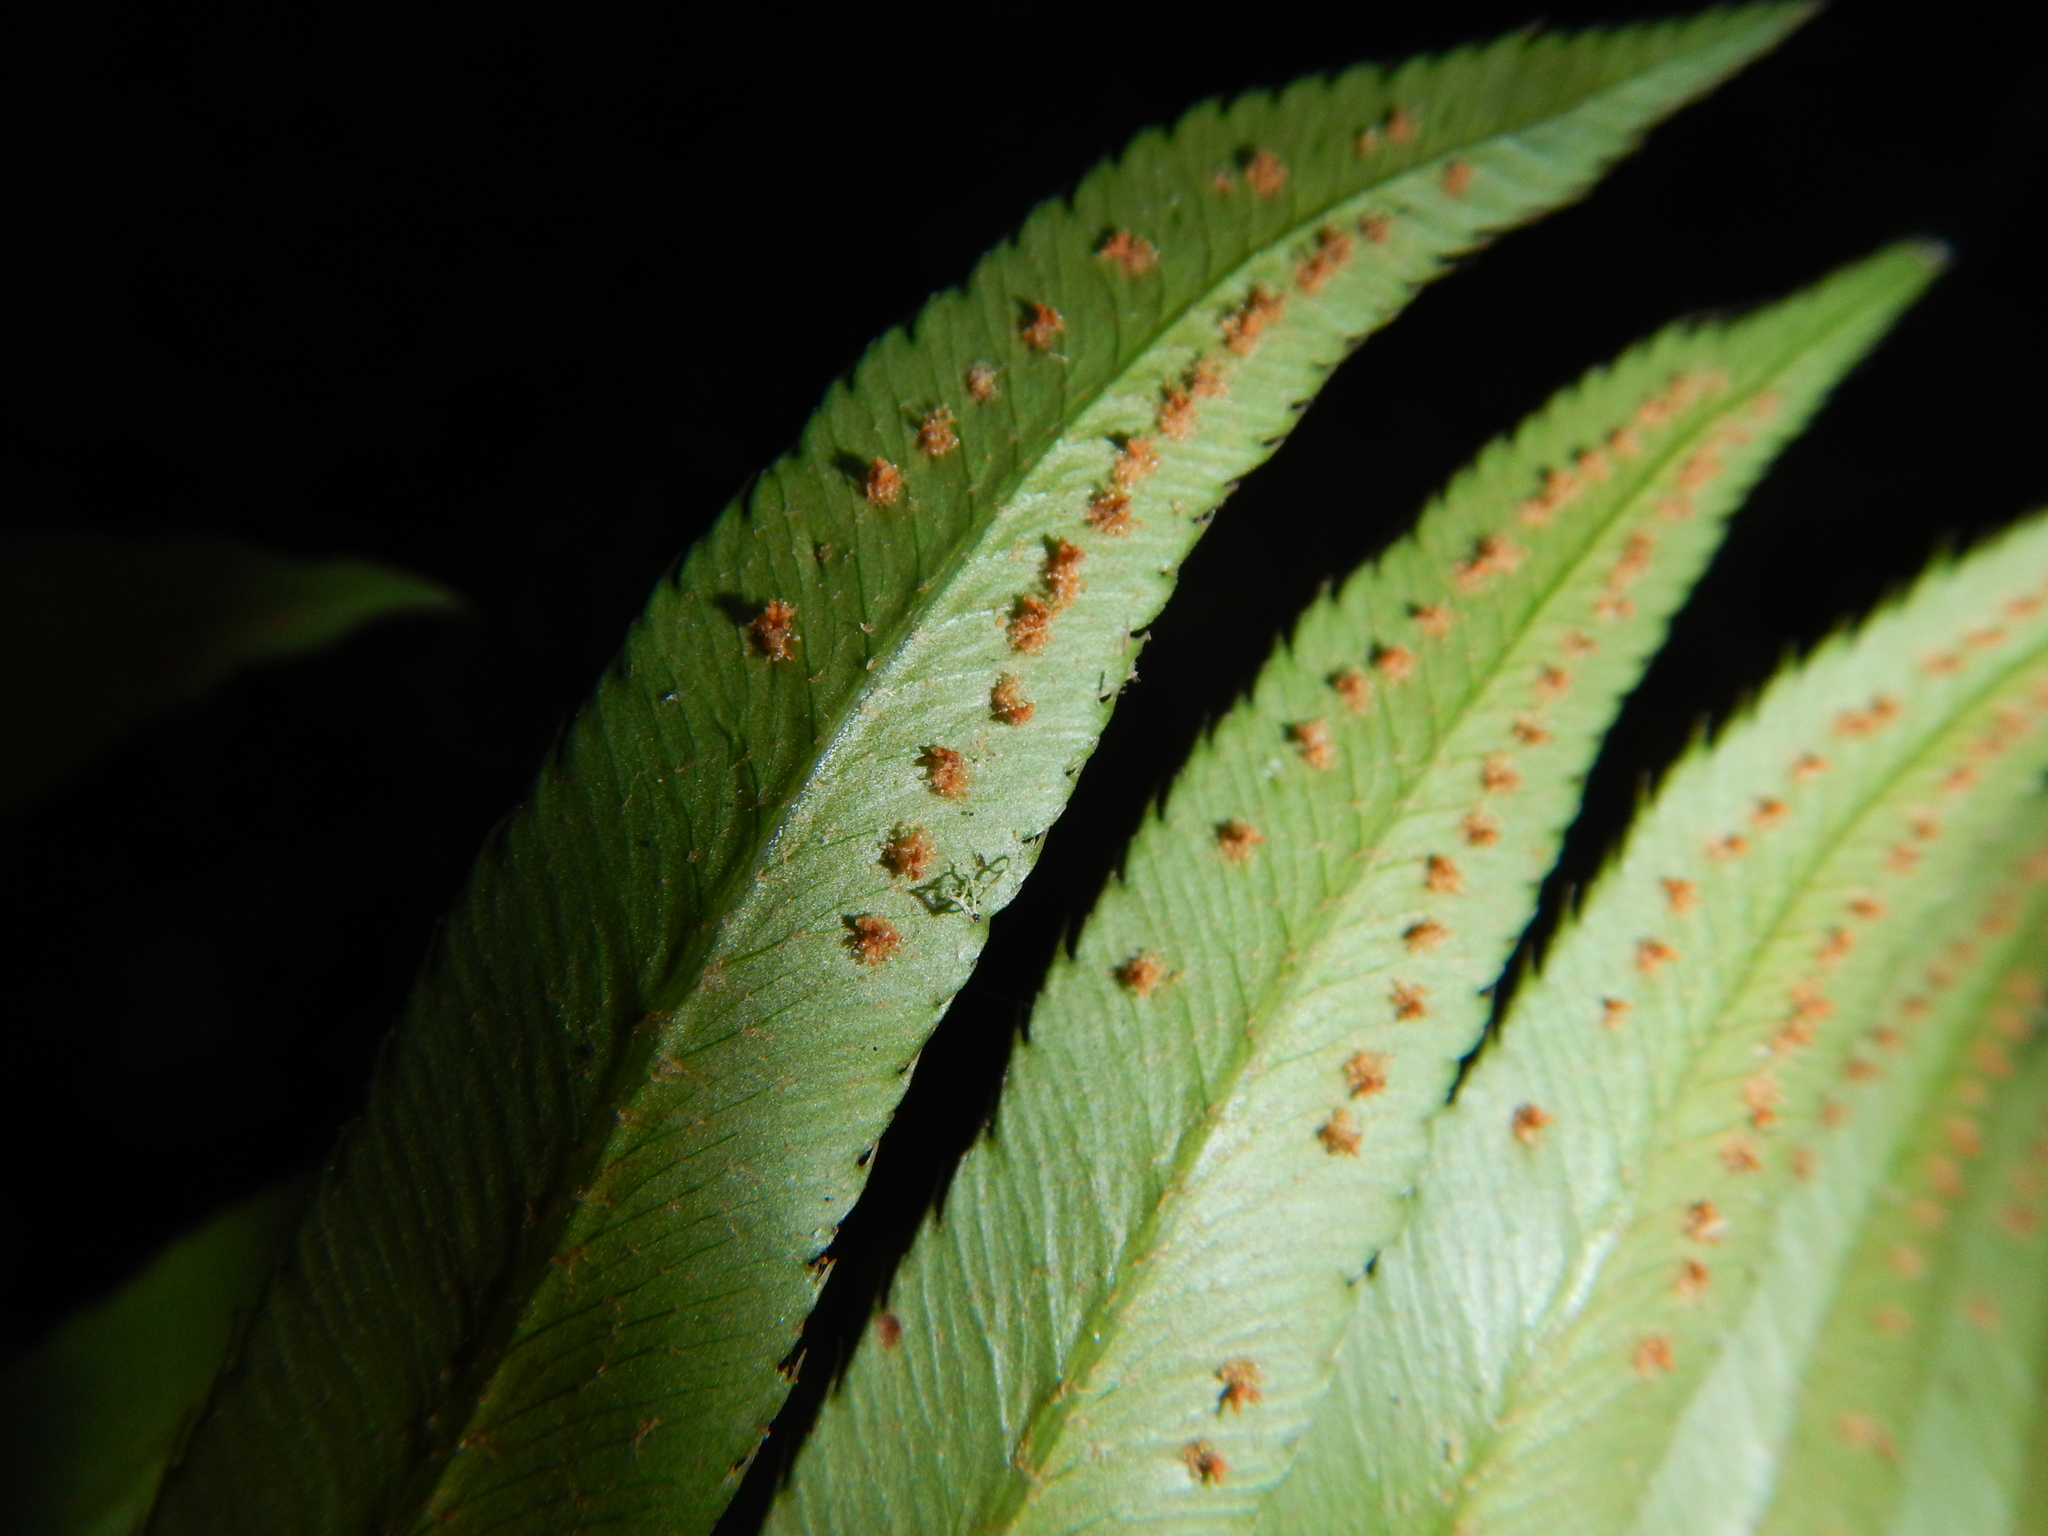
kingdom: Plantae
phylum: Tracheophyta
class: Polypodiopsida
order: Polypodiales
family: Dryopteridaceae
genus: Polystichum
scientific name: Polystichum munitum
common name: Western sword-fern
